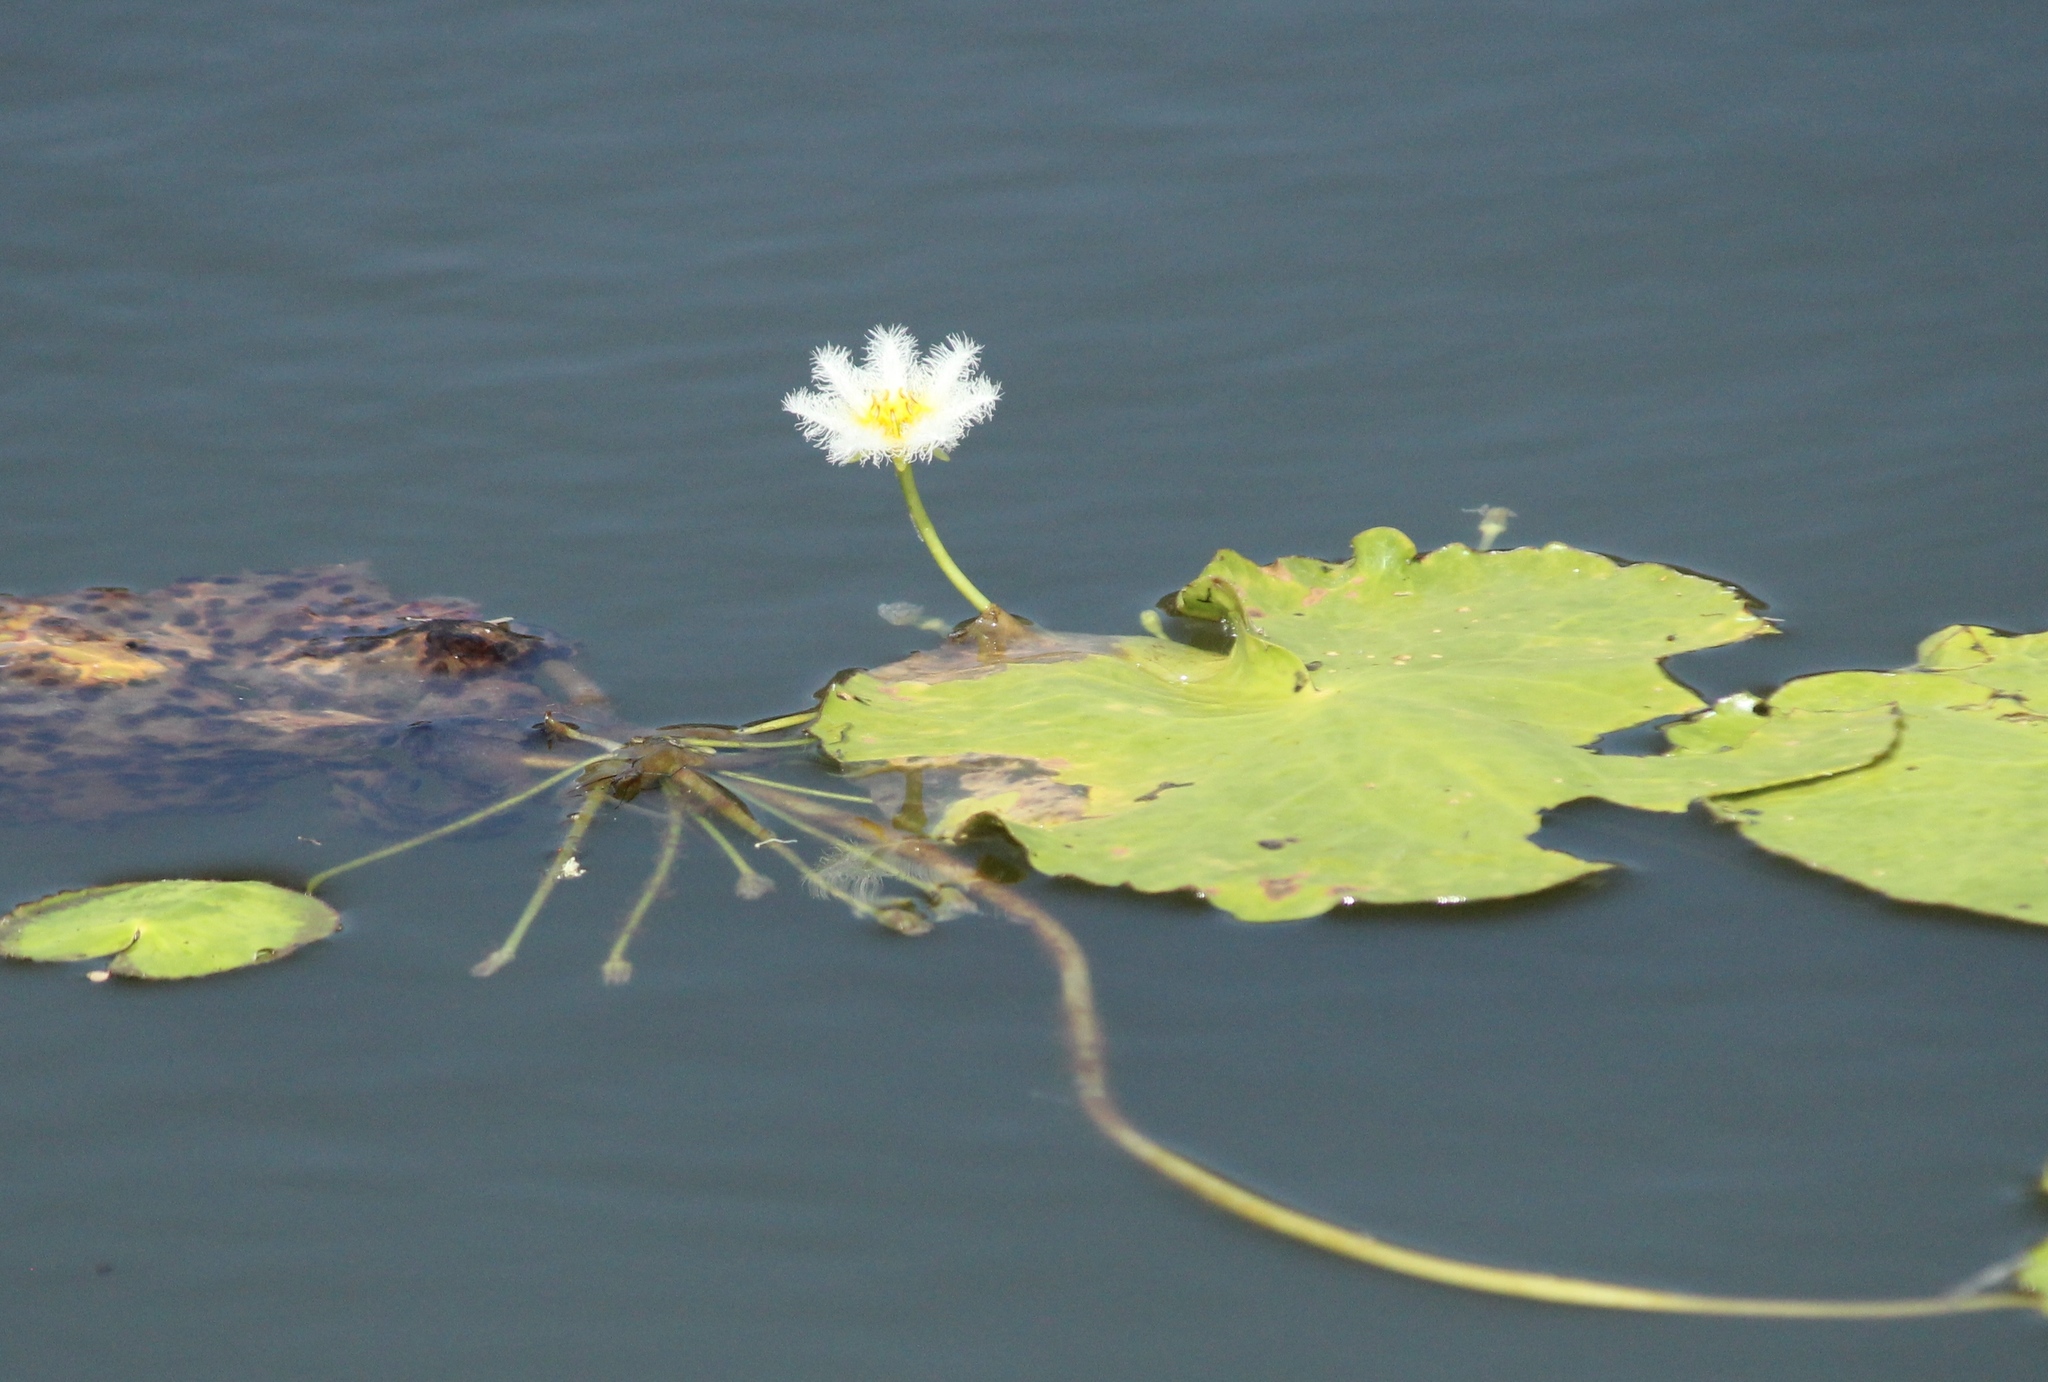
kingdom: Plantae
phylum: Tracheophyta
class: Magnoliopsida
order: Asterales
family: Menyanthaceae
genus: Nymphoides
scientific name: Nymphoides indica
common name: Water-snowflake
